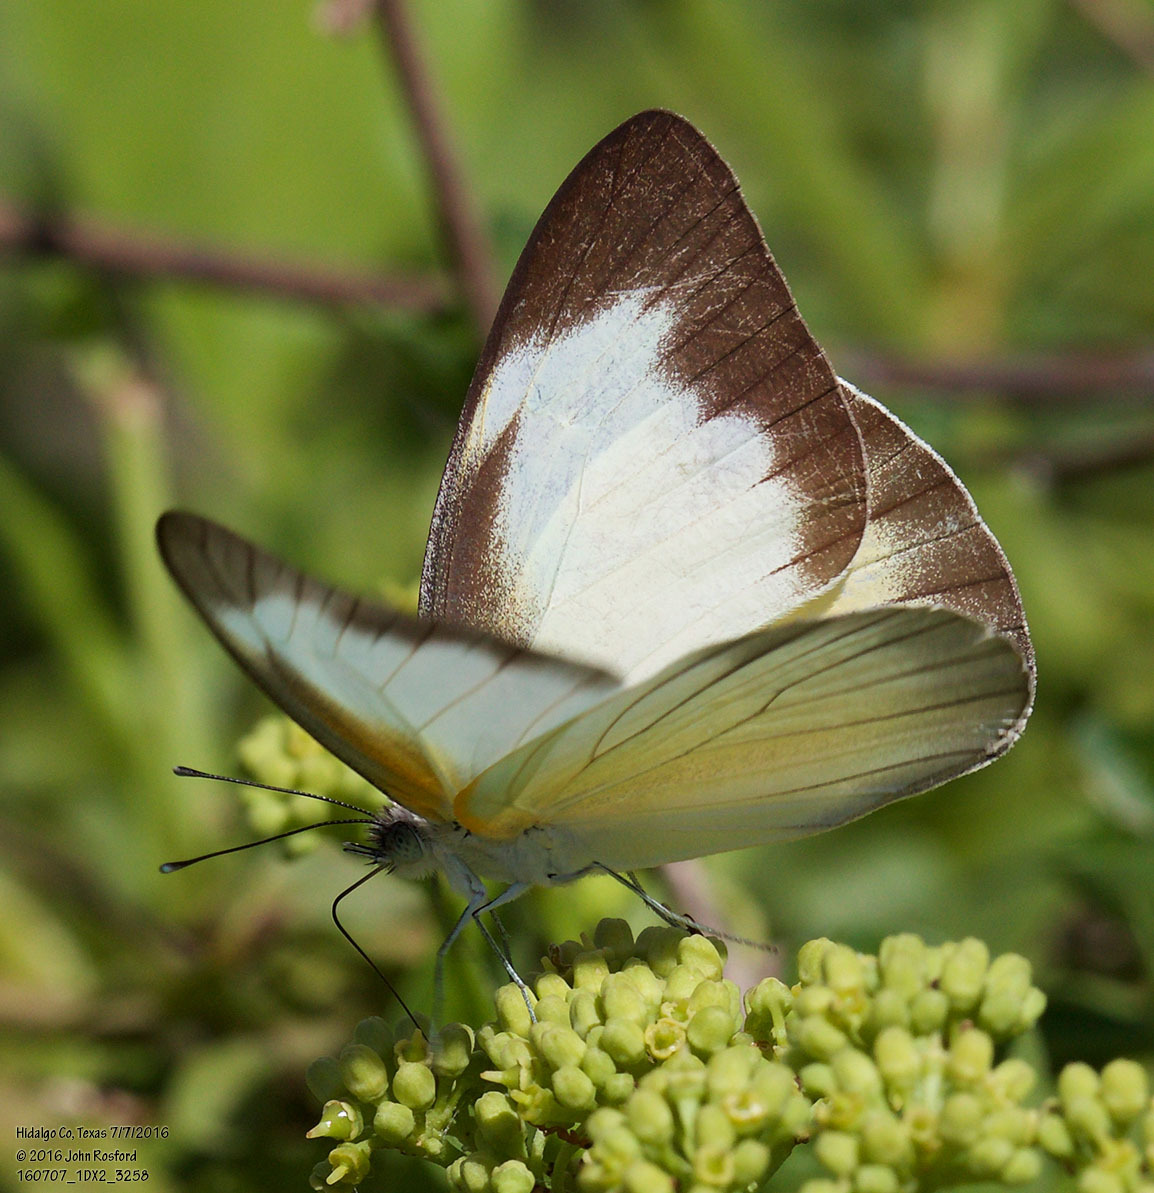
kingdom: Animalia
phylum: Arthropoda
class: Insecta
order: Lepidoptera
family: Pieridae
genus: Glutophrissa
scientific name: Glutophrissa drusilla
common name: Florida white
